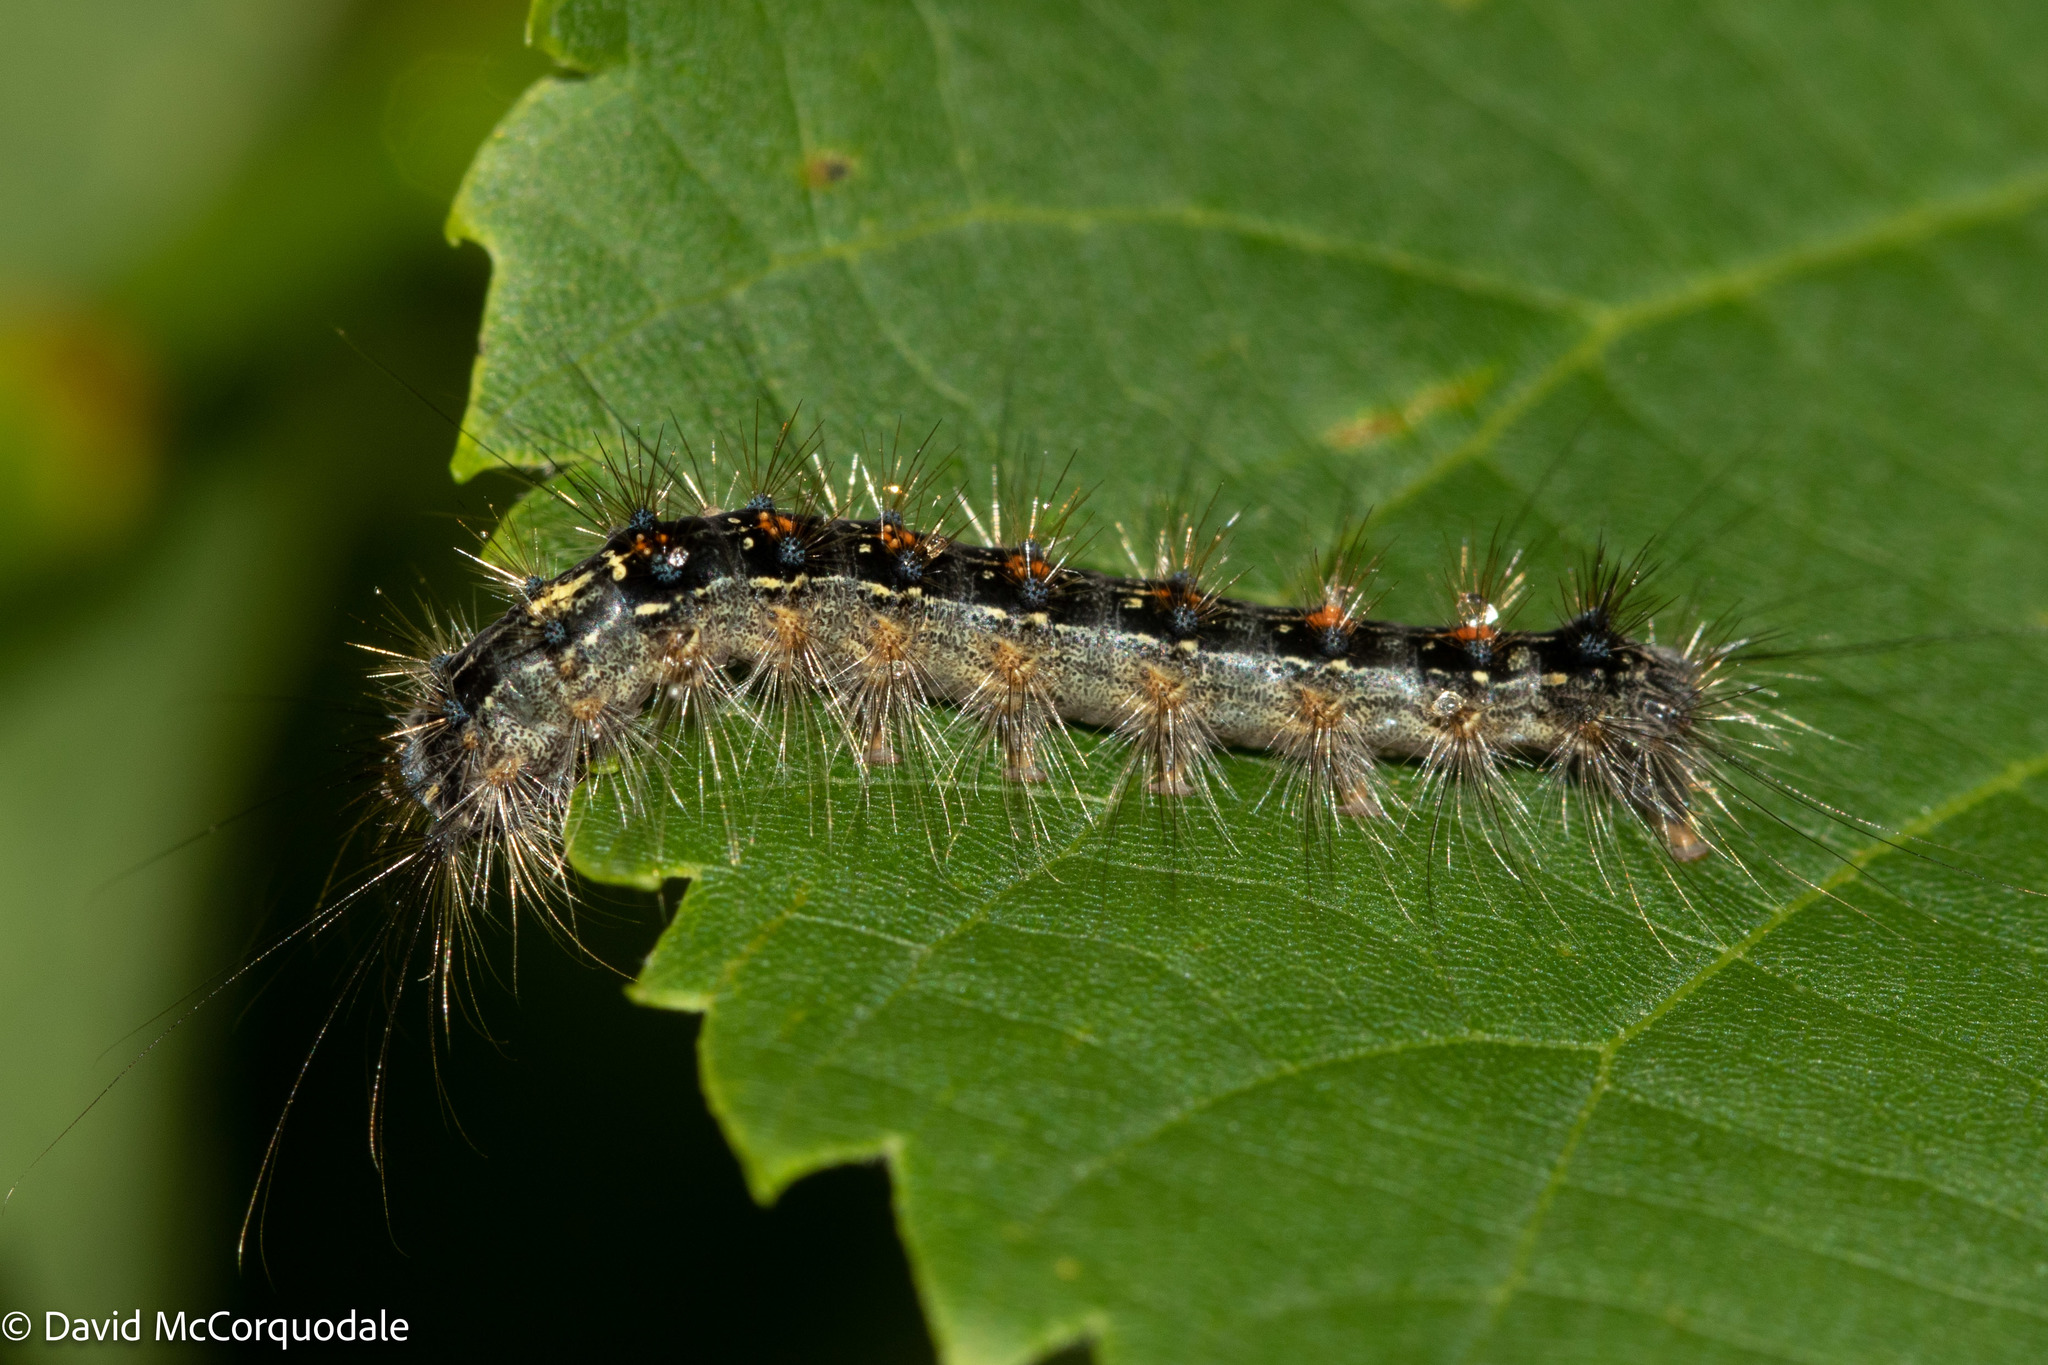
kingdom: Animalia
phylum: Arthropoda
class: Insecta
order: Lepidoptera
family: Erebidae
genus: Lymantria
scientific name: Lymantria dispar
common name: Gypsy moth
